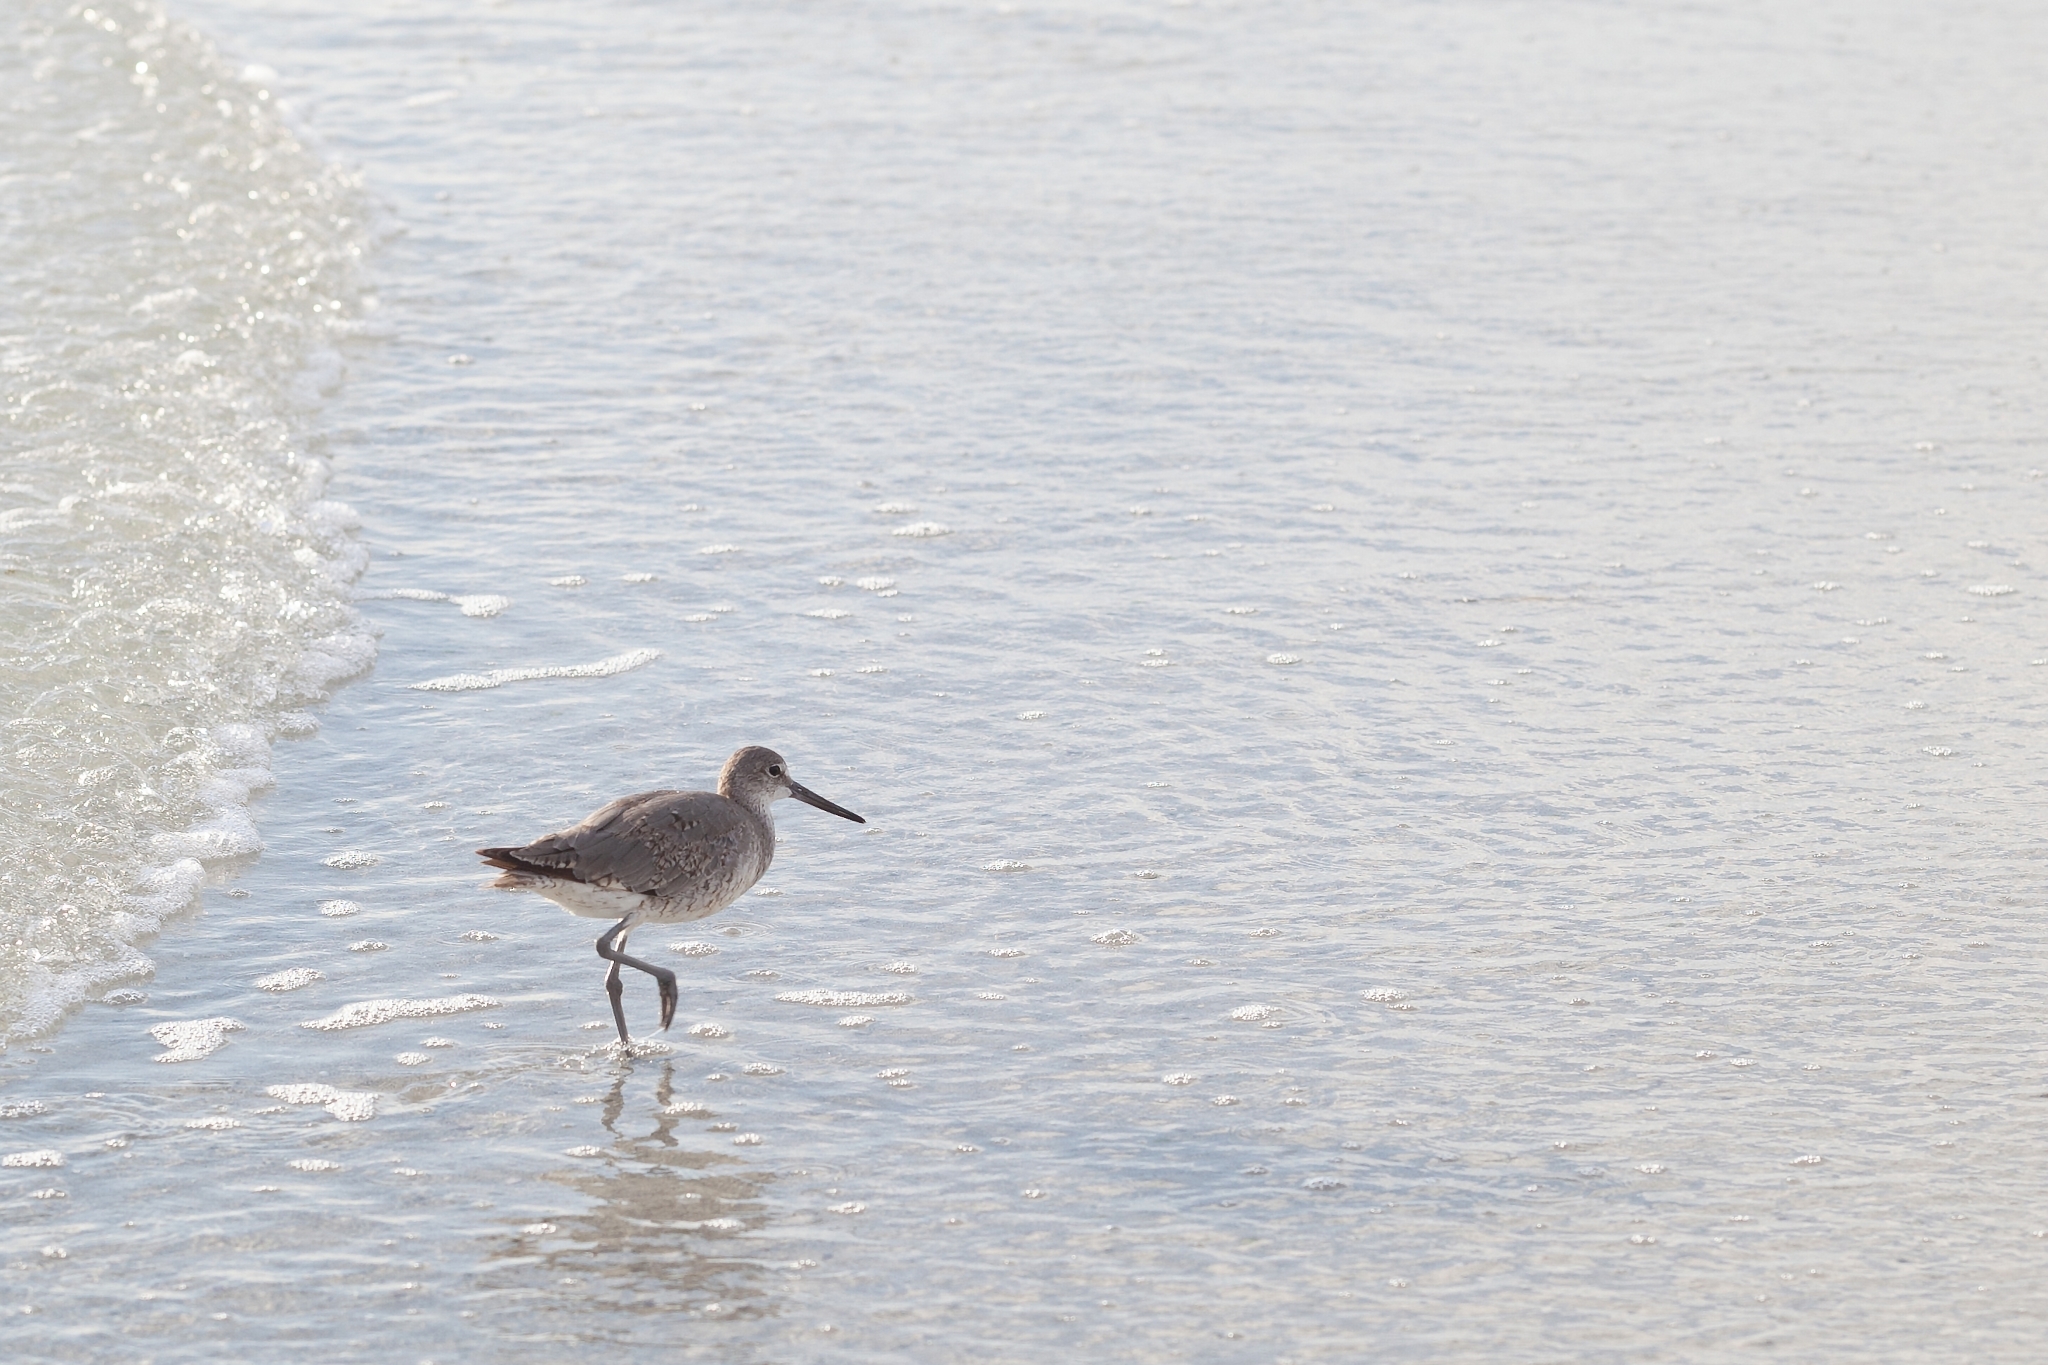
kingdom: Animalia
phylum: Chordata
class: Aves
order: Charadriiformes
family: Scolopacidae
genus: Tringa
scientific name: Tringa semipalmata
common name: Willet
